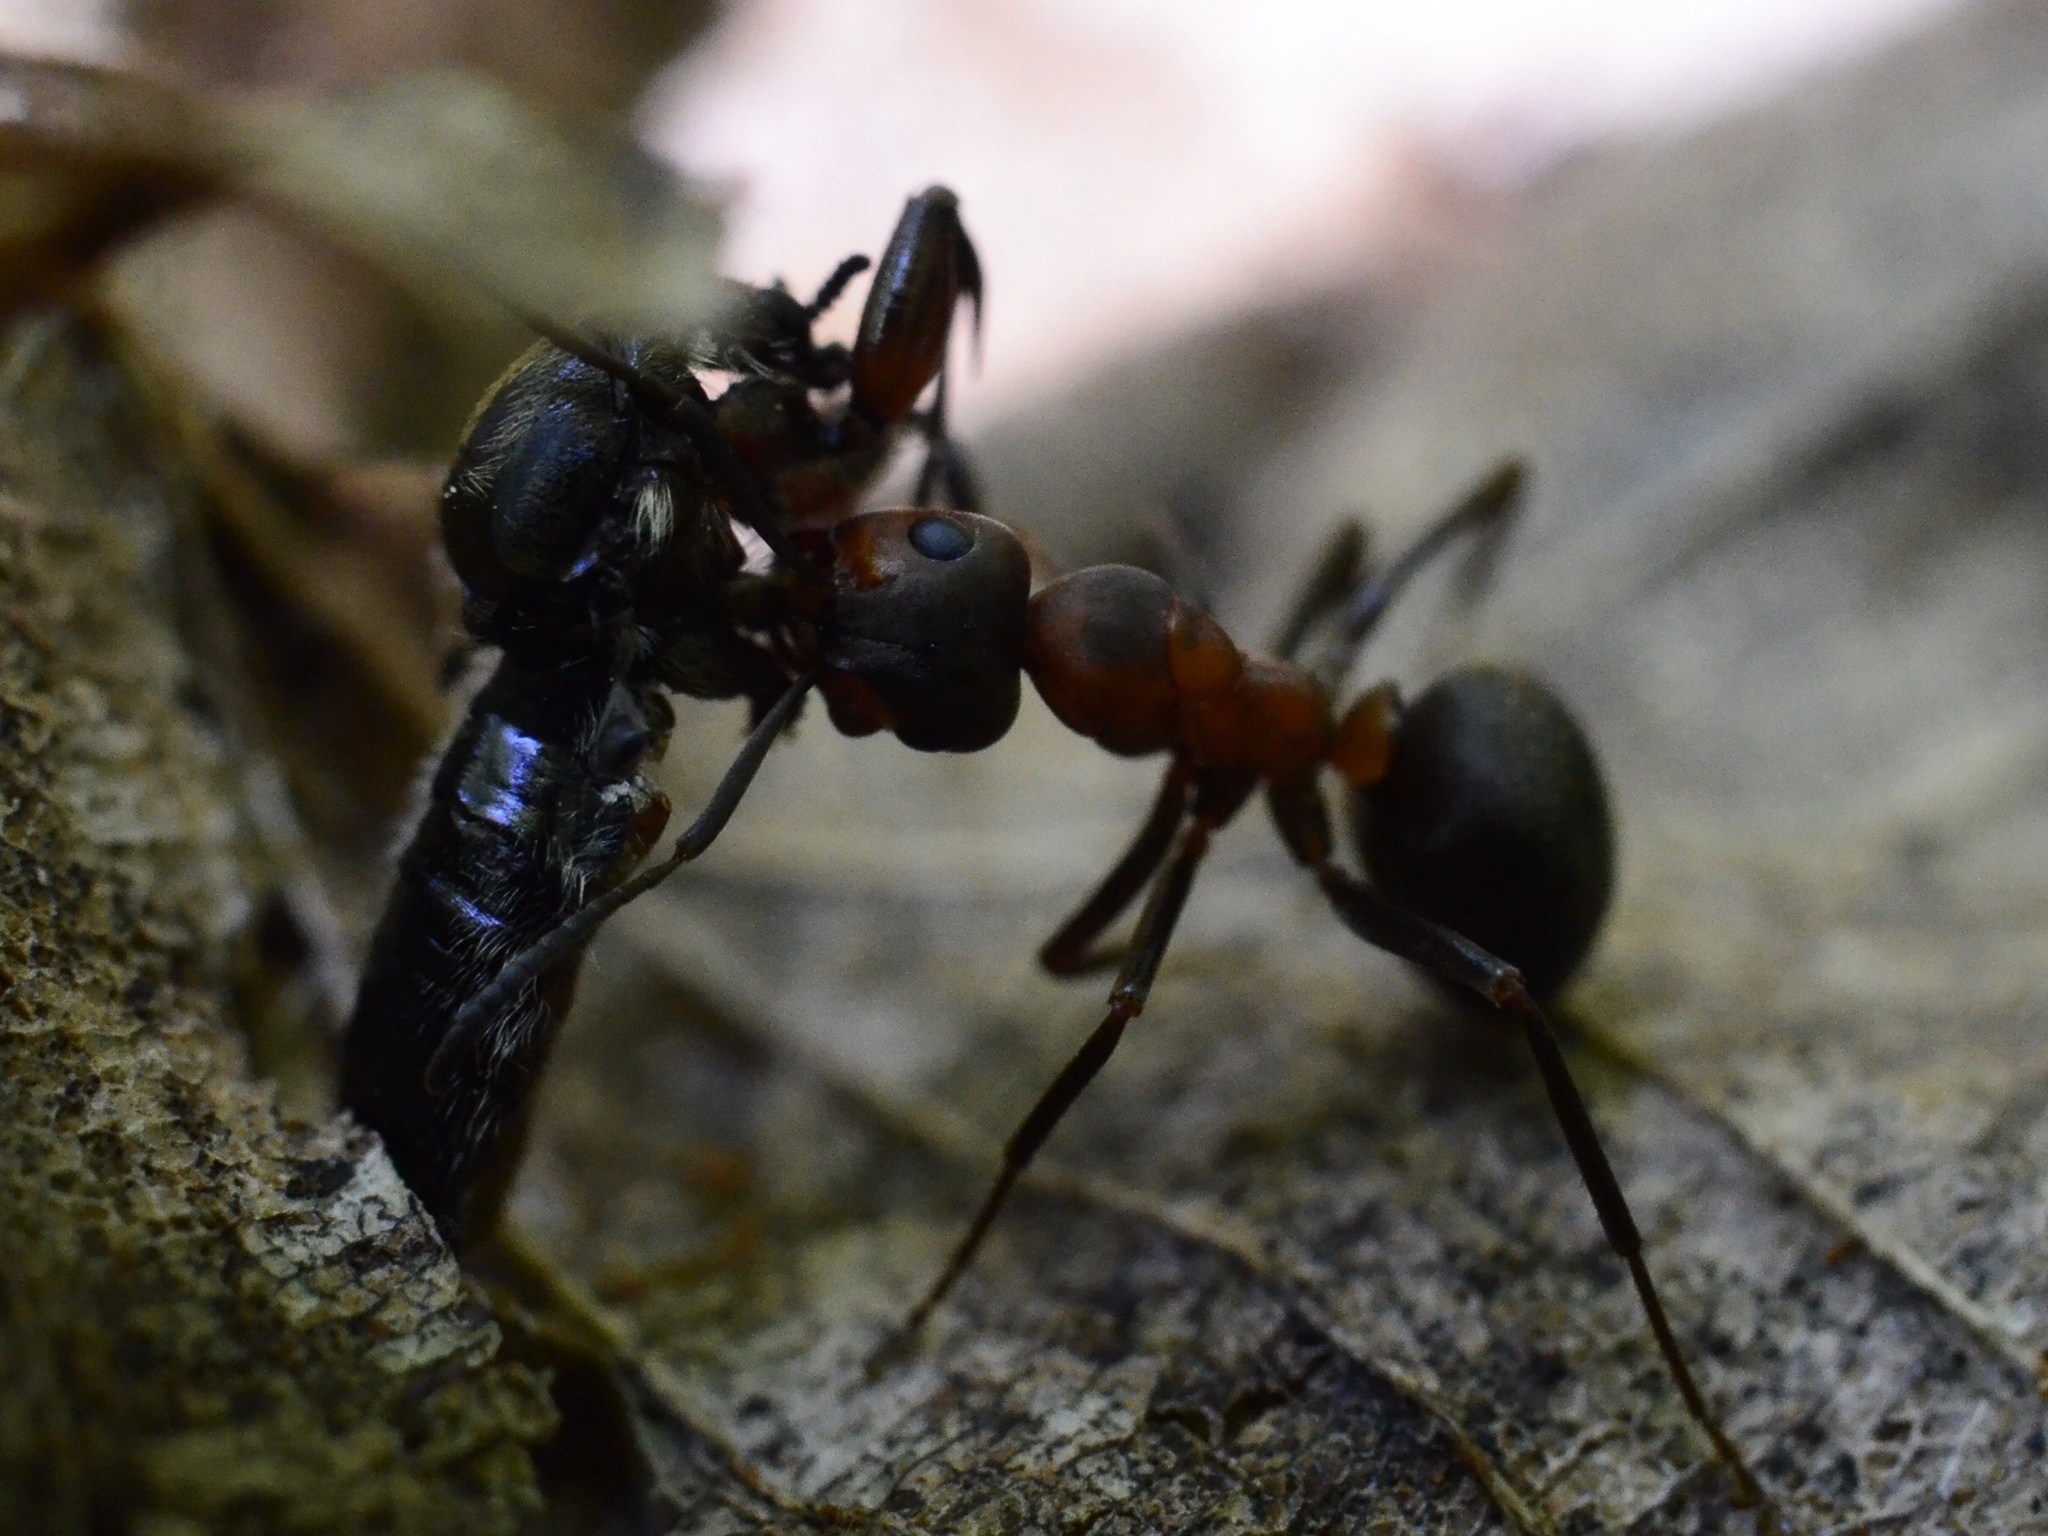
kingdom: Animalia
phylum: Arthropoda
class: Insecta
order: Hymenoptera
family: Formicidae
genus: Formica
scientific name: Formica
